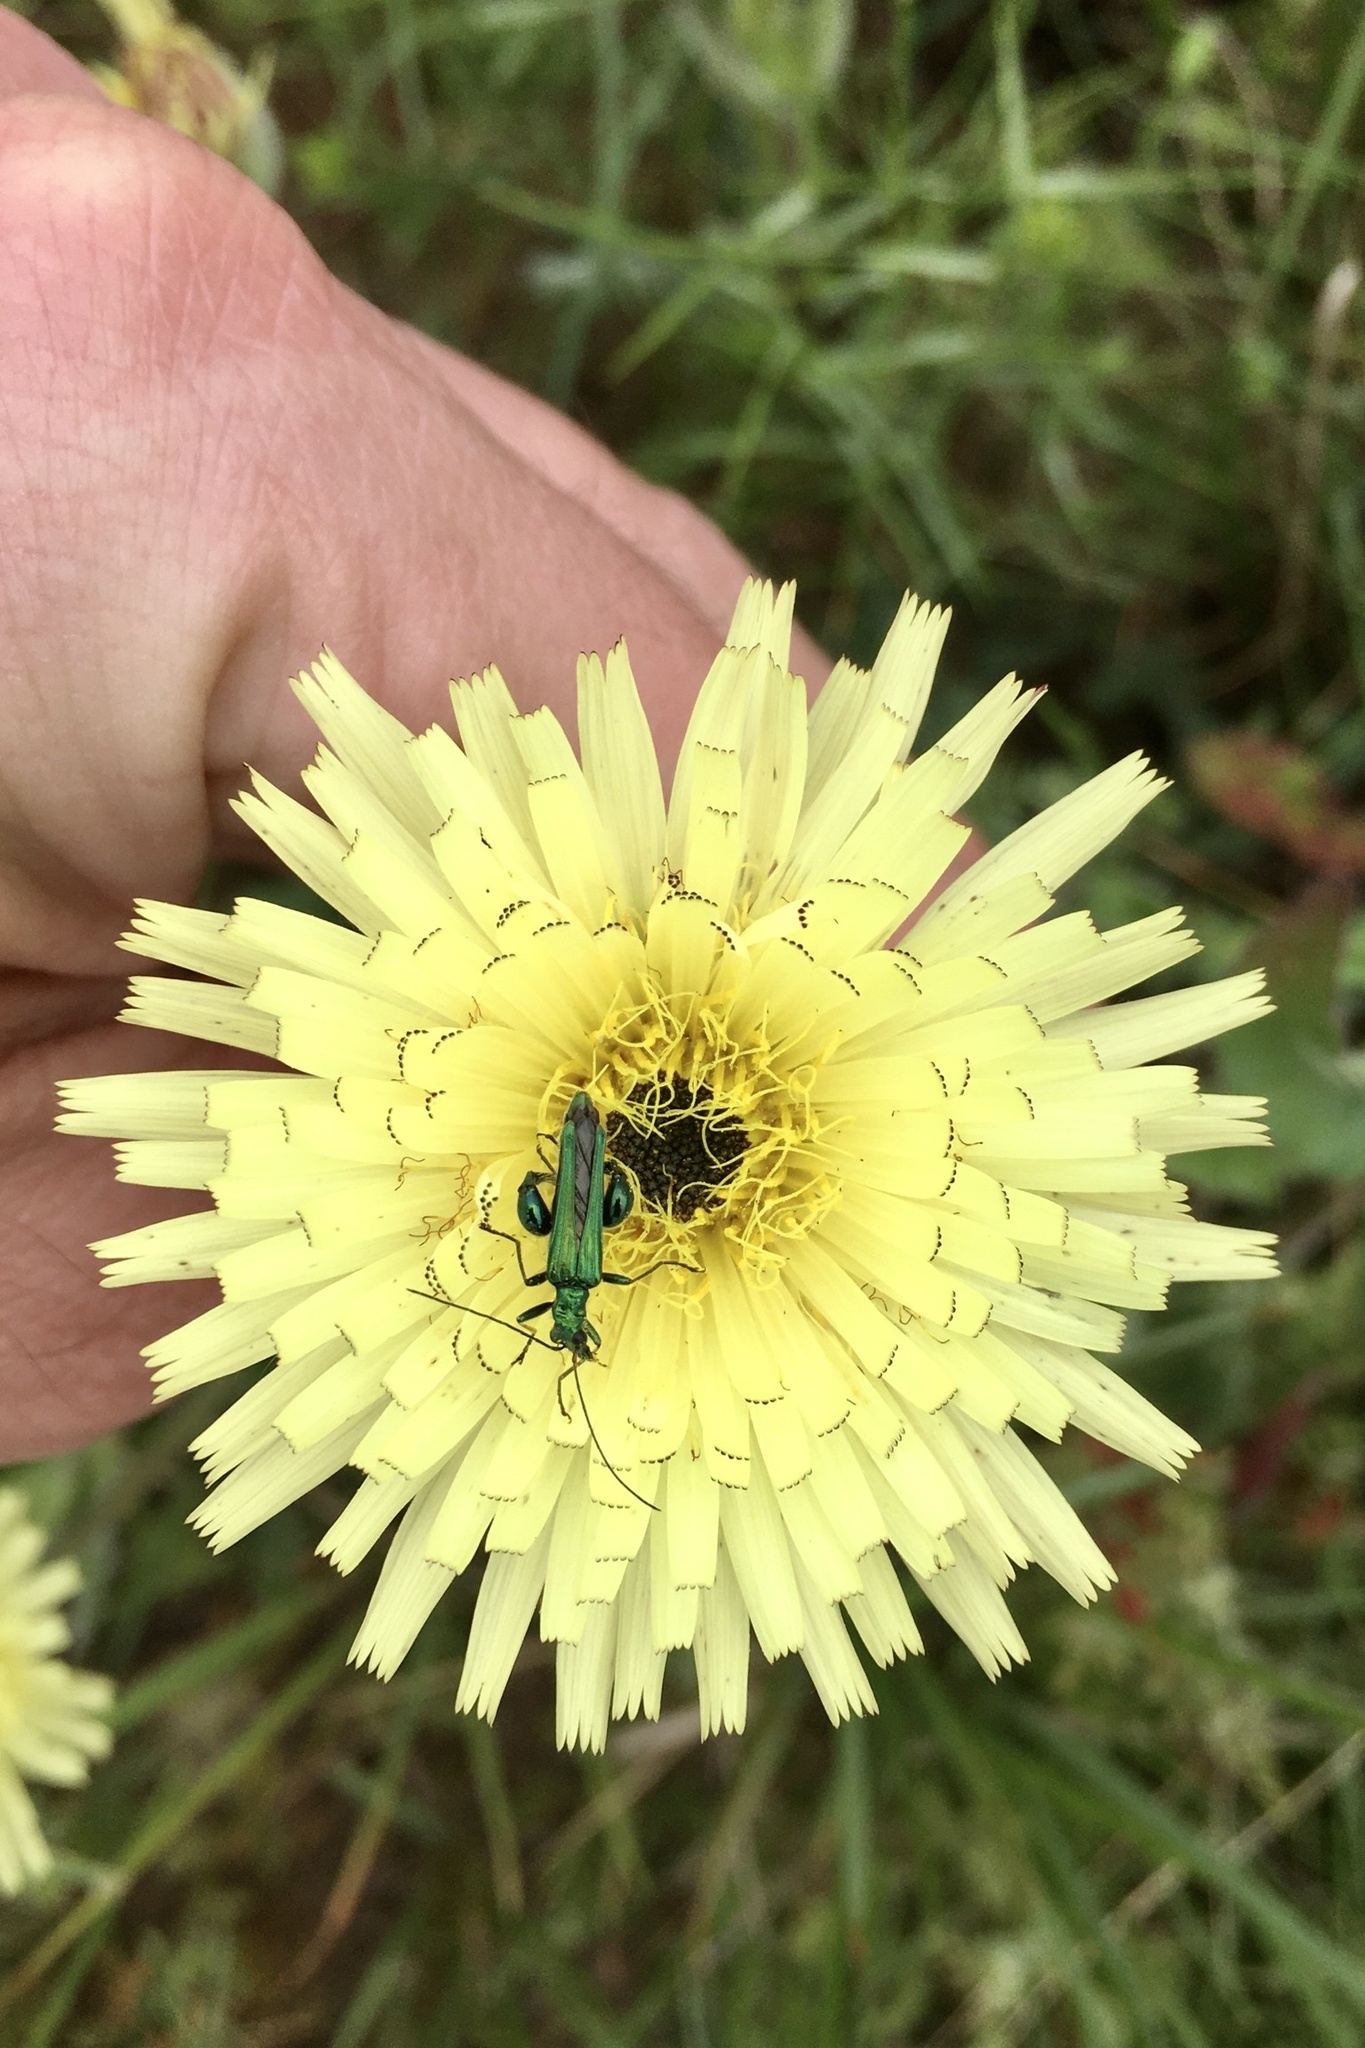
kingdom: Animalia
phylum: Arthropoda
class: Insecta
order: Coleoptera
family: Oedemeridae
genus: Oedemera
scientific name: Oedemera nobilis
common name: Swollen-thighed beetle
